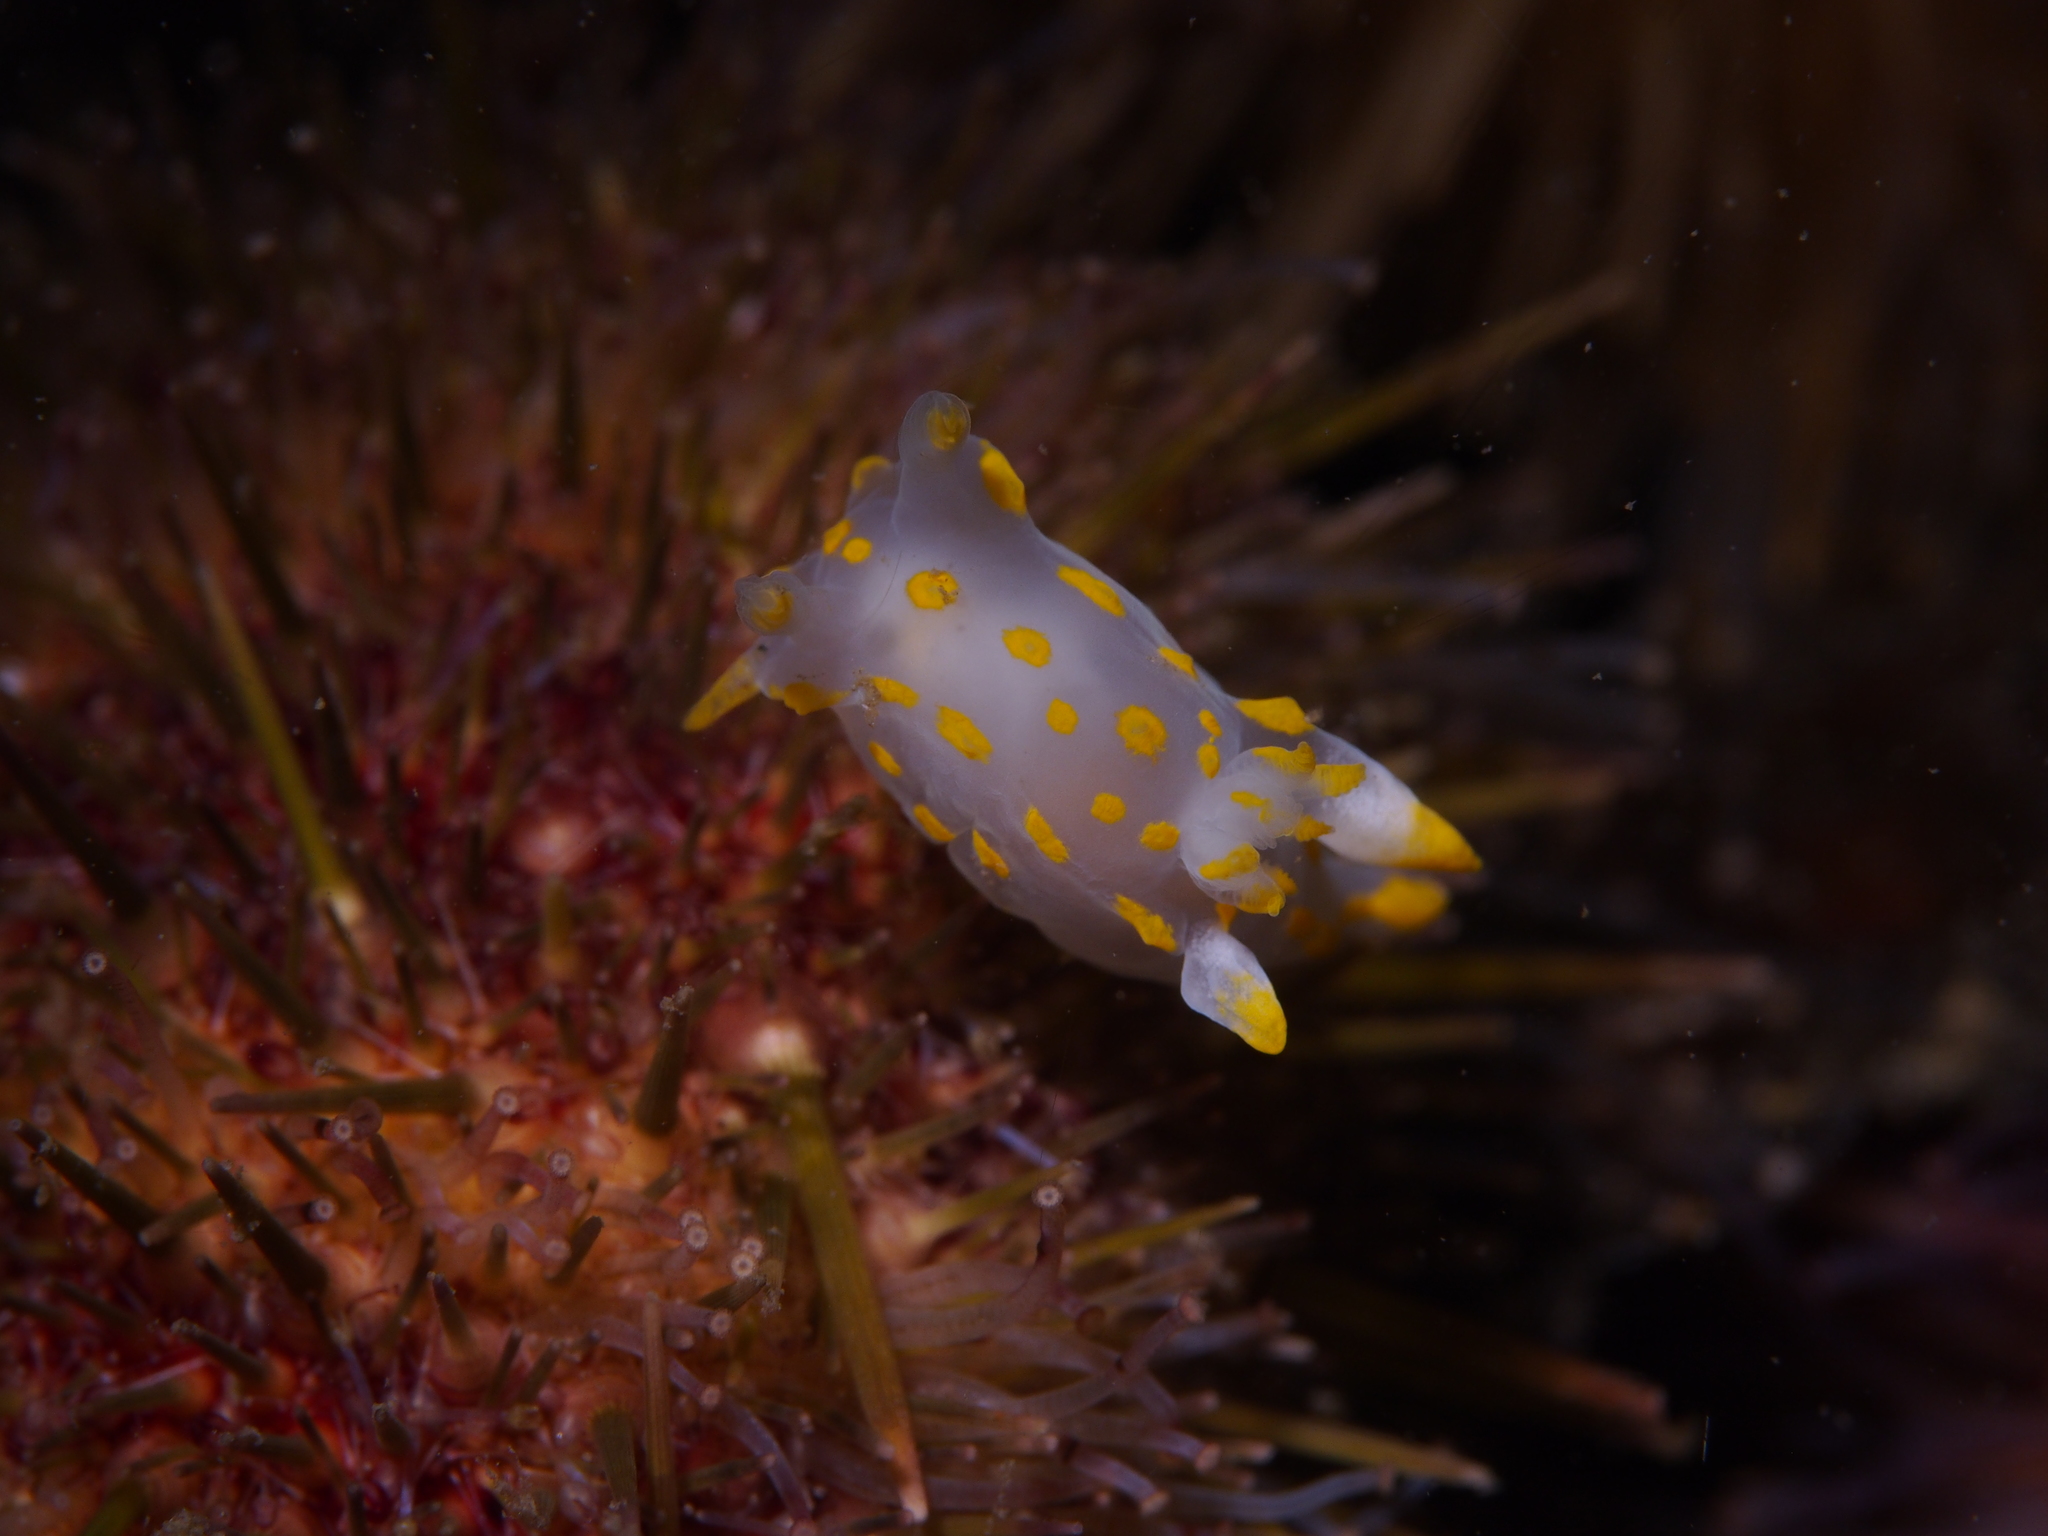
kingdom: Animalia
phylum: Mollusca
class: Gastropoda
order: Nudibranchia
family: Polyceridae
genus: Polycera
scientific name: Polycera quadrilineata
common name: Four-striped polycera
